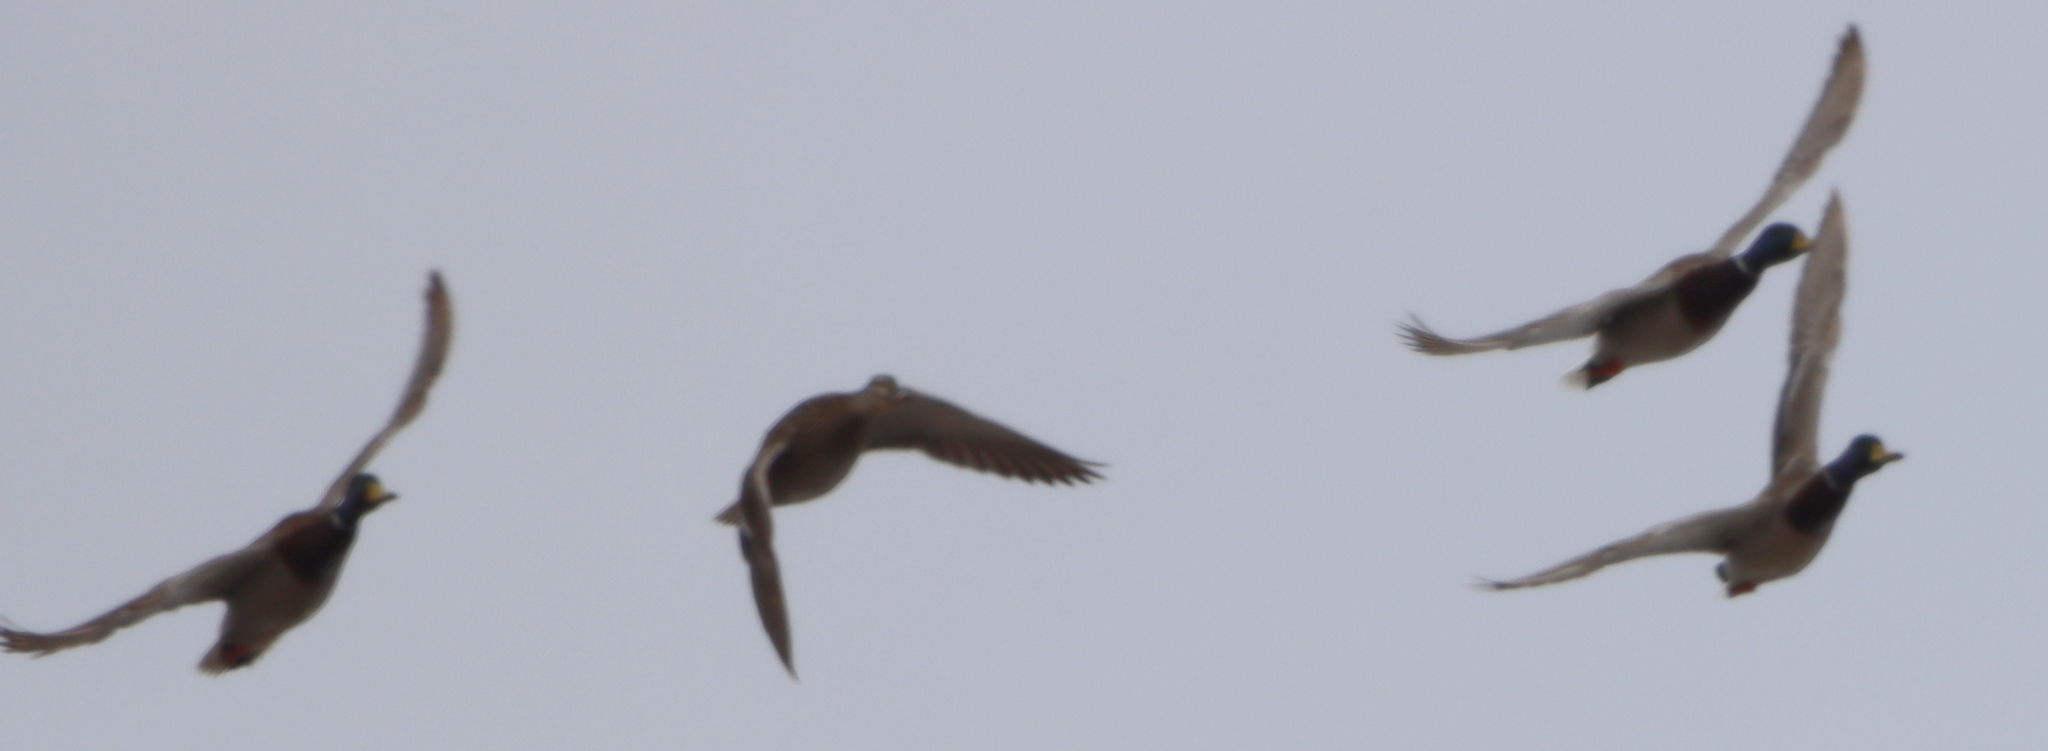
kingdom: Animalia
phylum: Chordata
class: Aves
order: Anseriformes
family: Anatidae
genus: Anas
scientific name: Anas platyrhynchos
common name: Mallard
